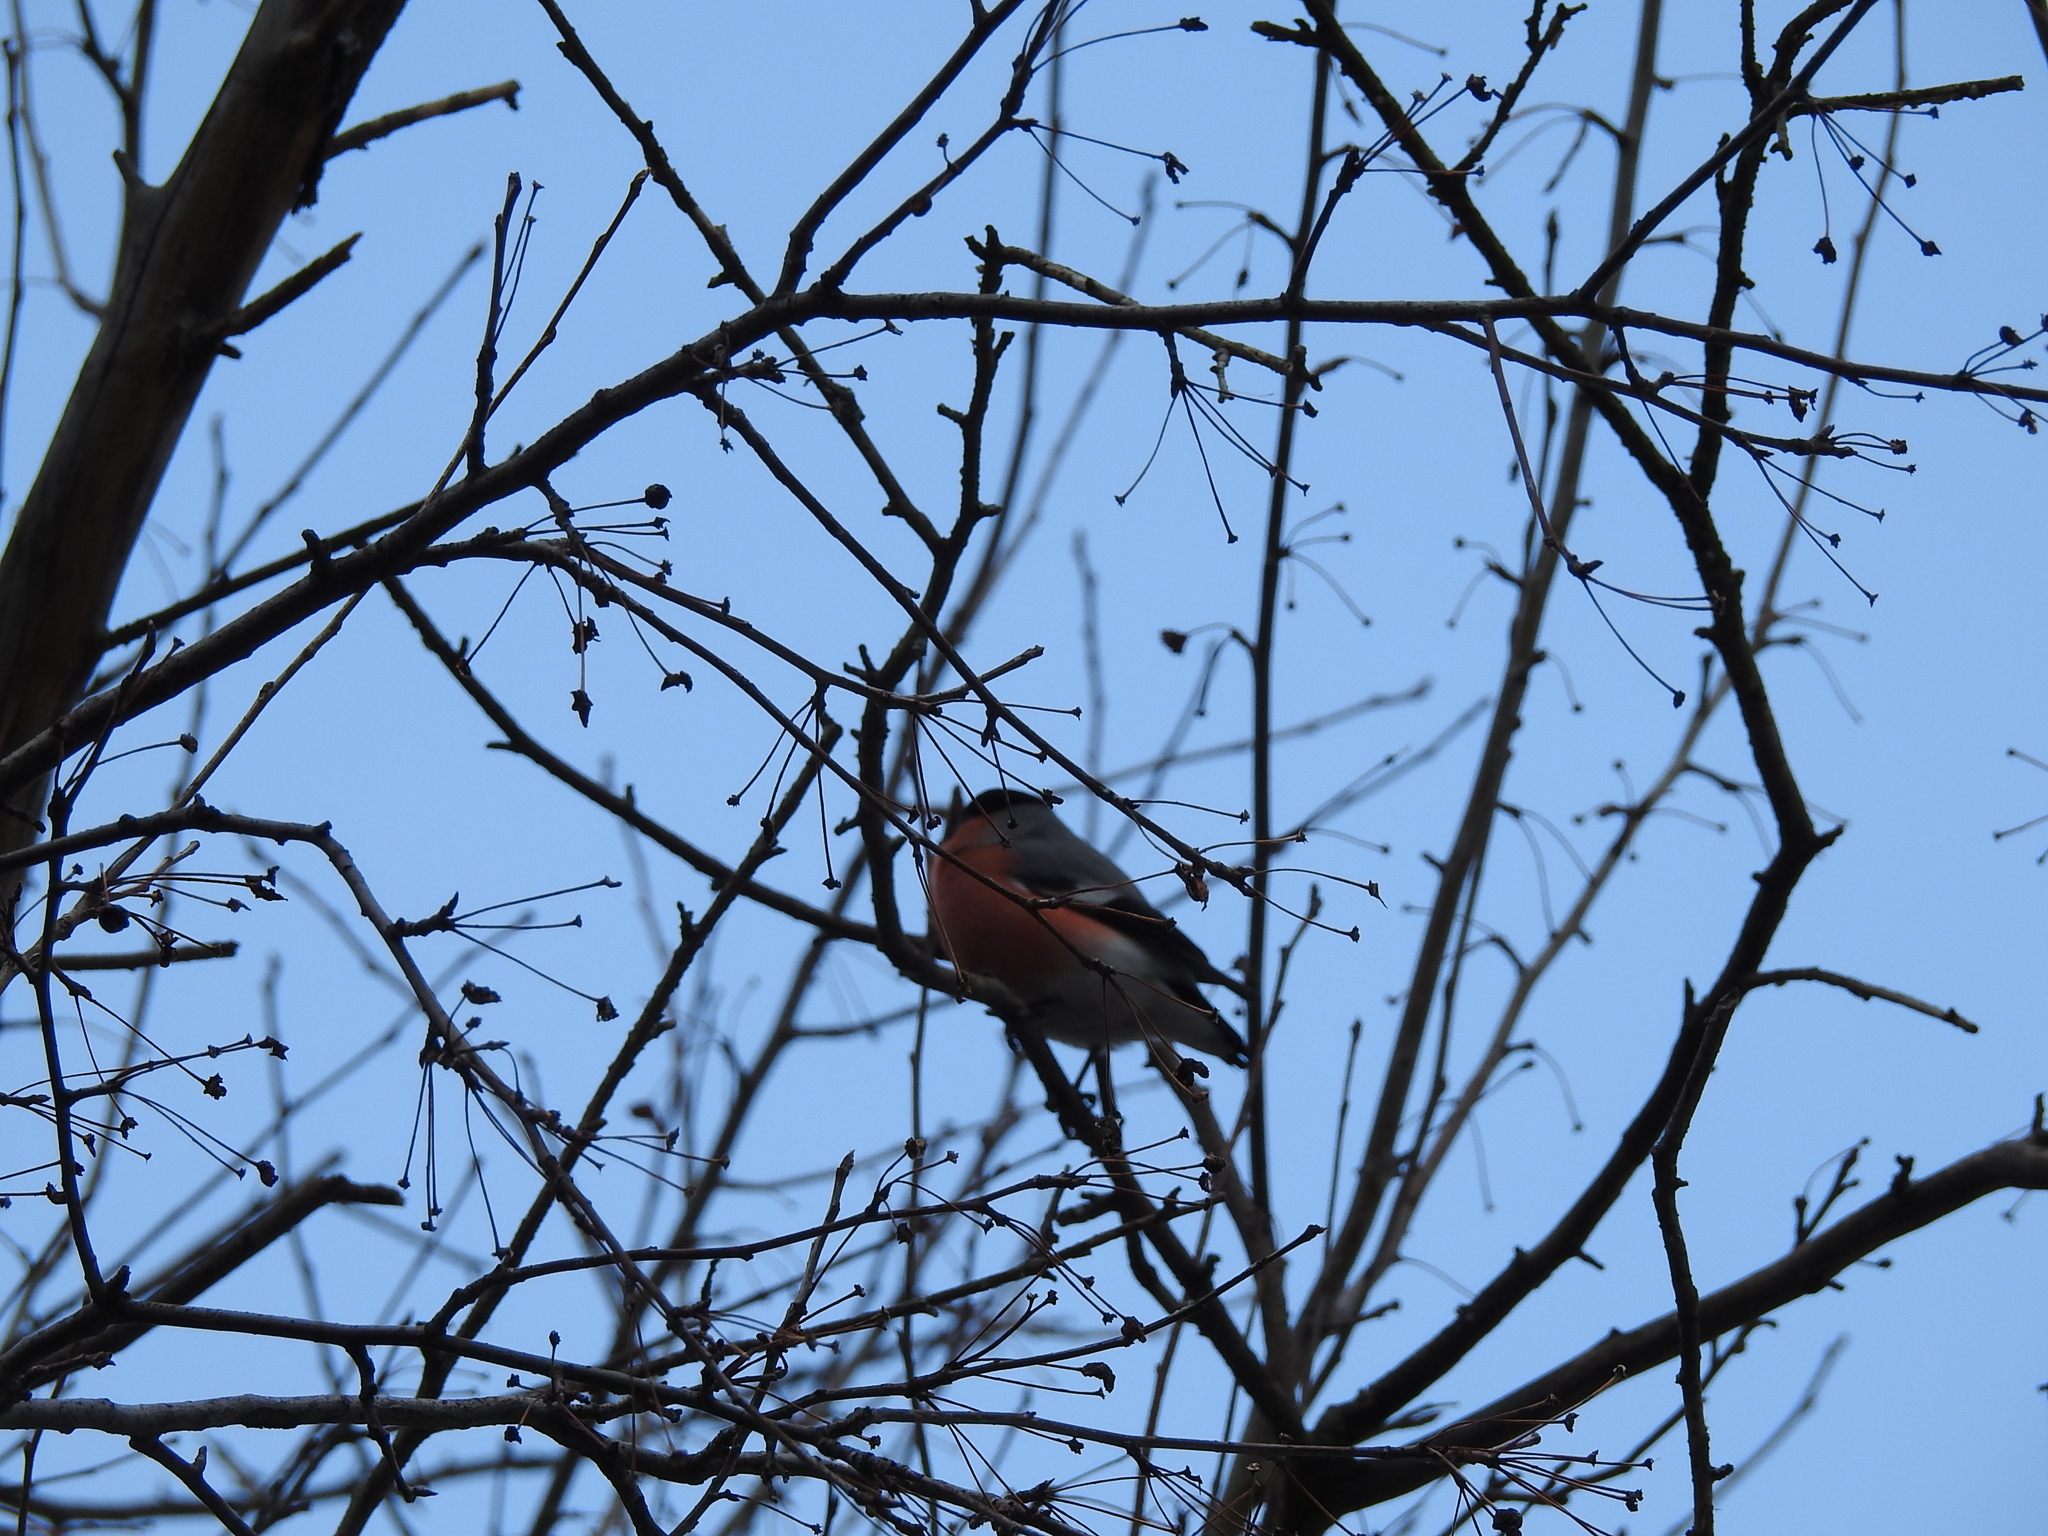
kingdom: Animalia
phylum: Chordata
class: Aves
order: Passeriformes
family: Fringillidae
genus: Pyrrhula
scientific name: Pyrrhula pyrrhula
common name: Eurasian bullfinch
